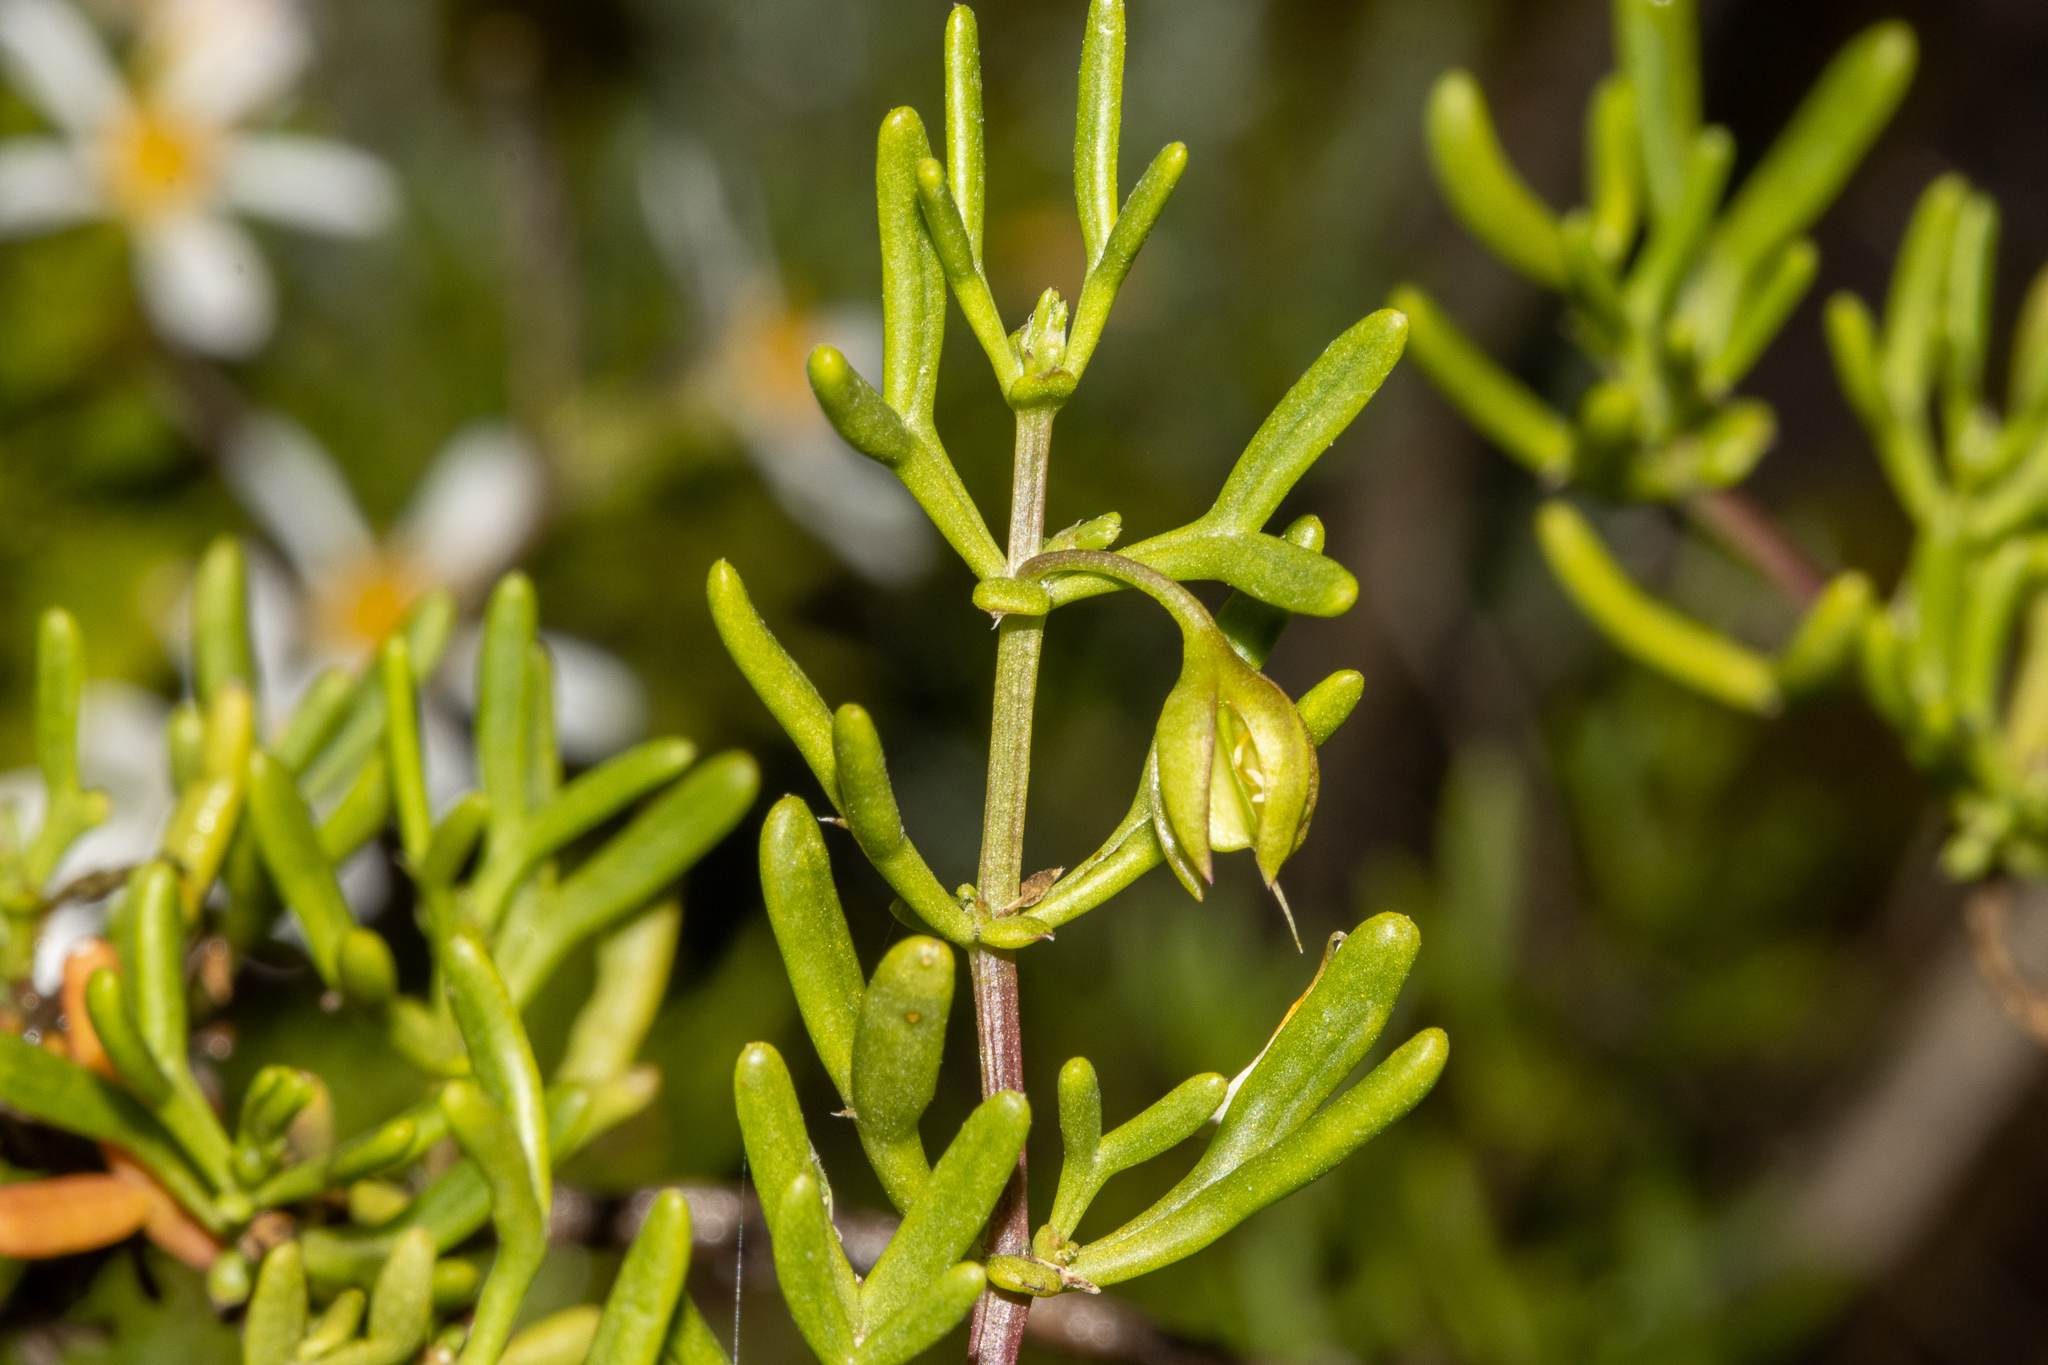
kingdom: Plantae
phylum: Tracheophyta
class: Magnoliopsida
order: Zygophyllales
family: Zygophyllaceae
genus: Roepera
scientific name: Roepera aurantiaca
